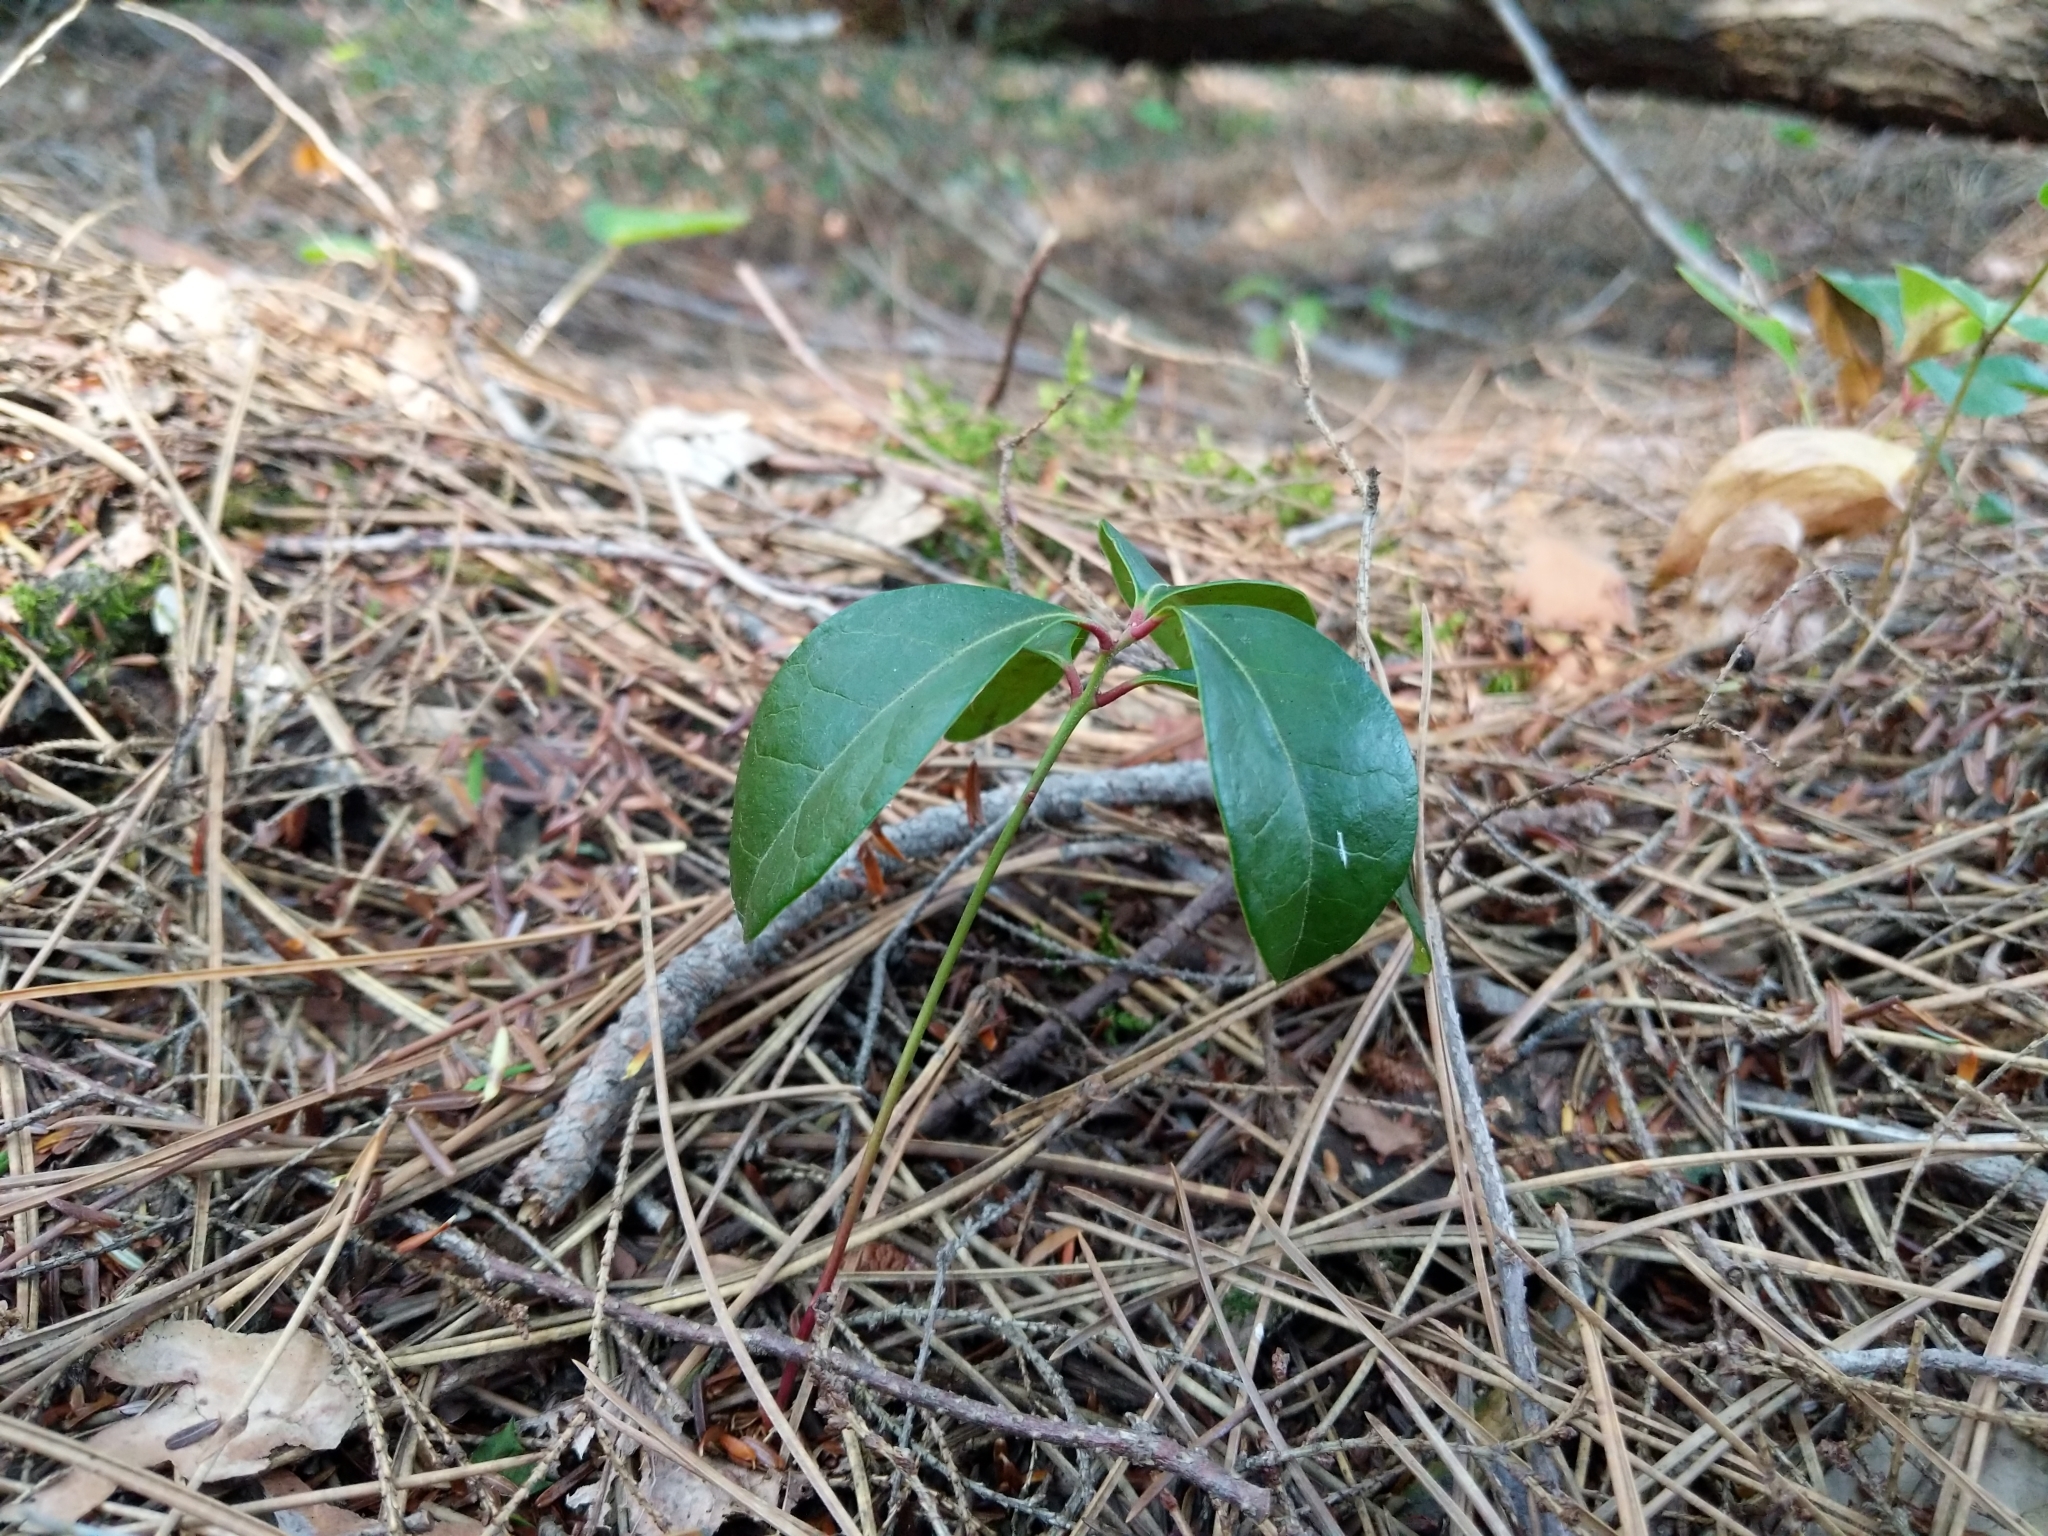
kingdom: Plantae
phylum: Tracheophyta
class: Magnoliopsida
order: Ericales
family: Ericaceae
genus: Gaultheria
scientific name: Gaultheria procumbens
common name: Checkerberry
